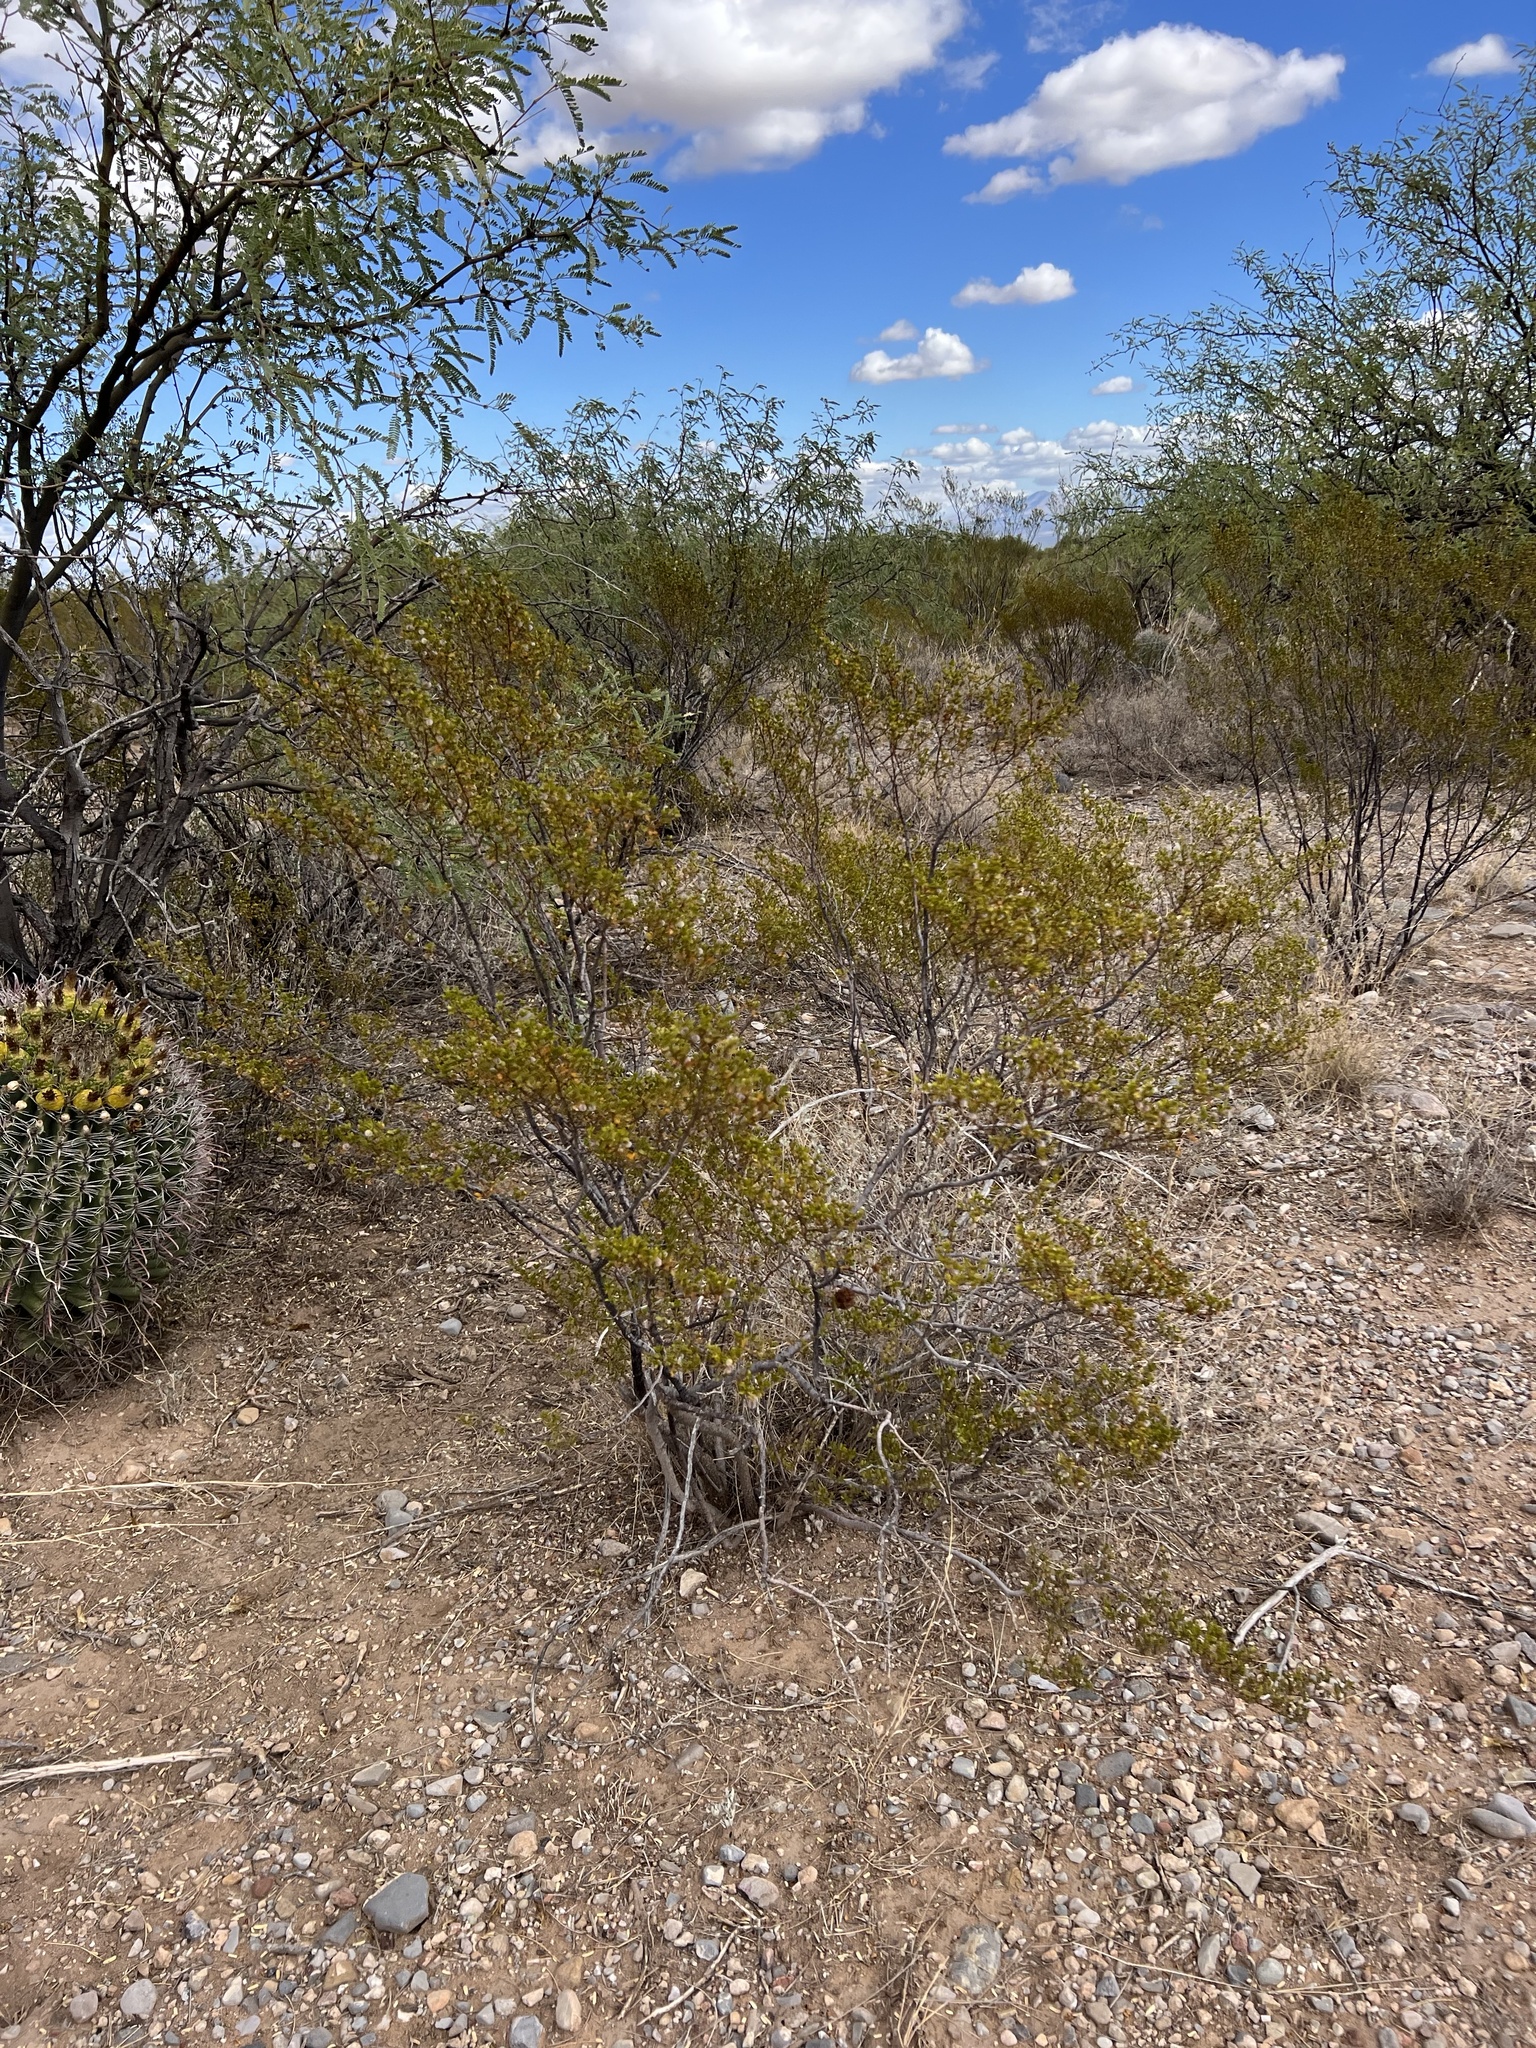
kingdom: Plantae
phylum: Tracheophyta
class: Magnoliopsida
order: Zygophyllales
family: Zygophyllaceae
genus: Larrea
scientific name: Larrea tridentata
